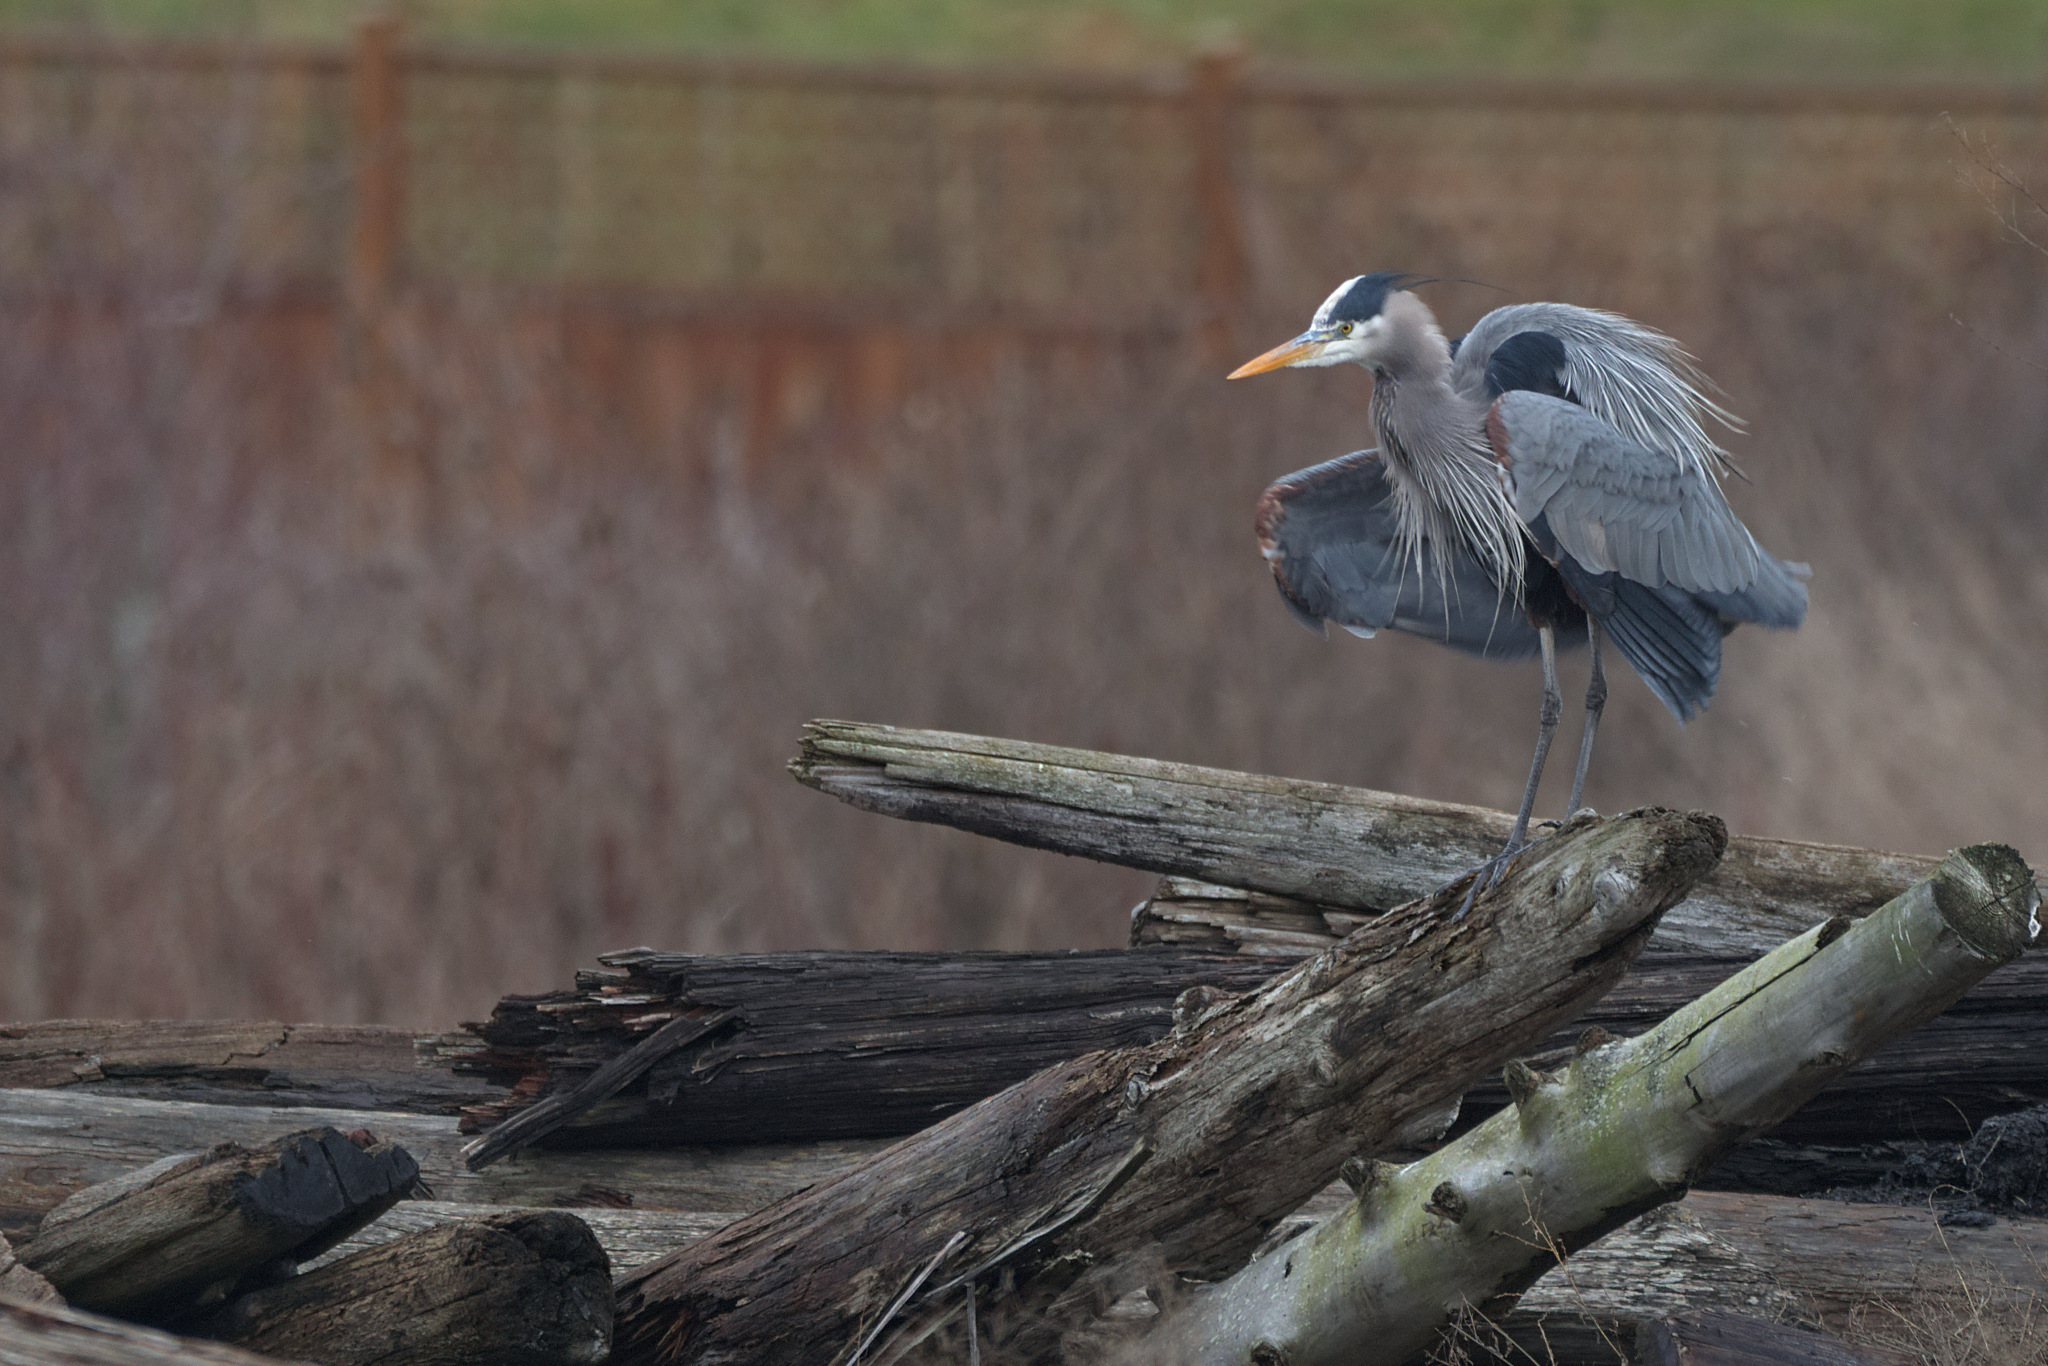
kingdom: Animalia
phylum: Chordata
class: Aves
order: Pelecaniformes
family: Ardeidae
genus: Ardea
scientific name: Ardea herodias
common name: Great blue heron
